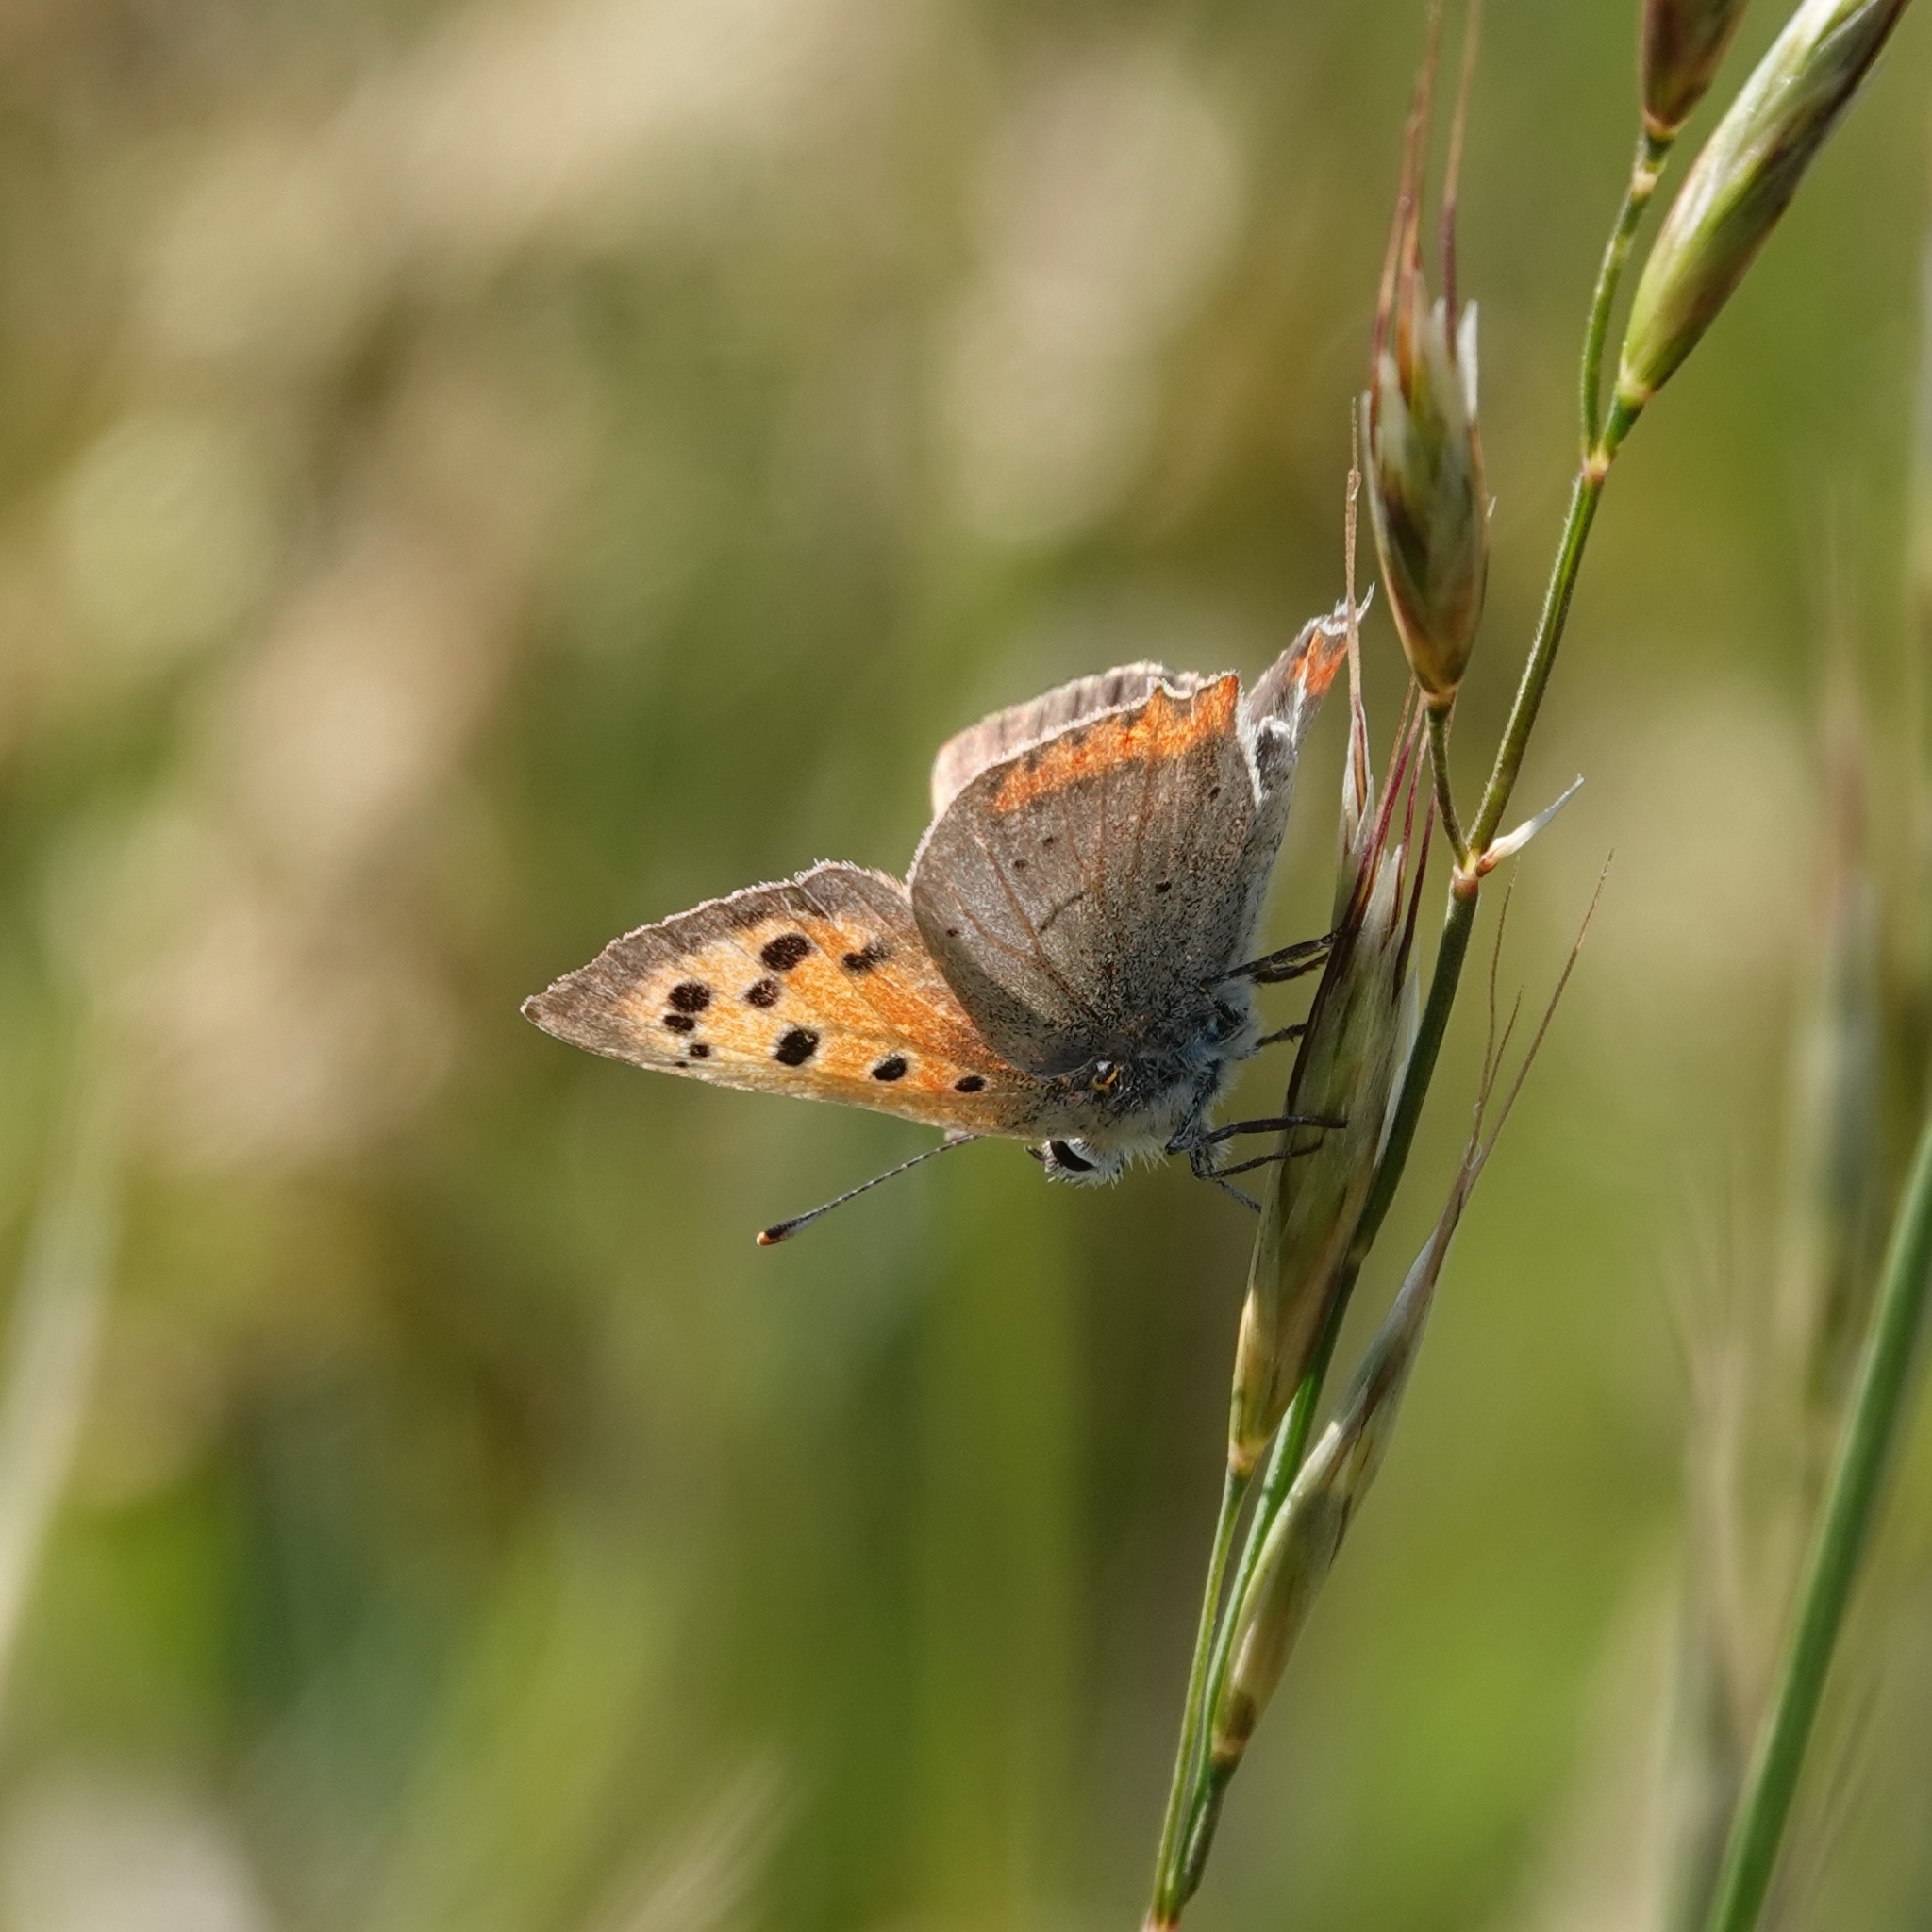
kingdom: Animalia
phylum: Arthropoda
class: Insecta
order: Lepidoptera
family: Lycaenidae
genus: Lycaena
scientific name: Lycaena phlaeas
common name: Small copper
